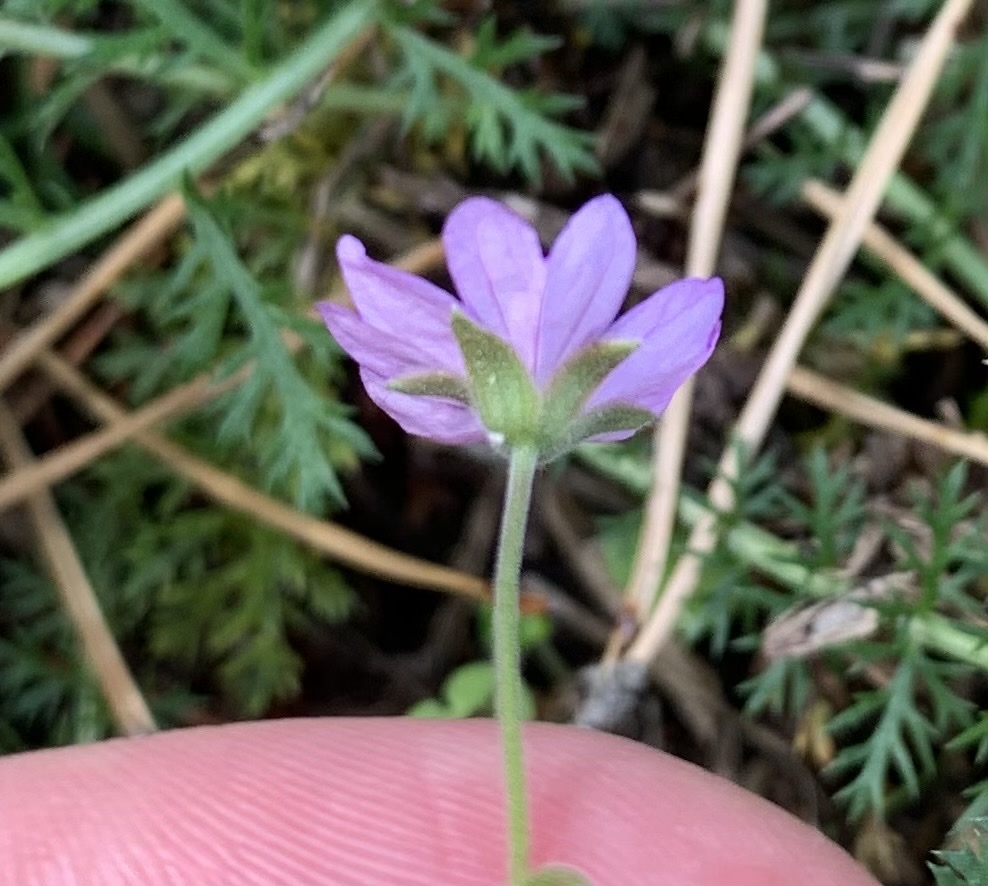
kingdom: Plantae
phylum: Tracheophyta
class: Magnoliopsida
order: Geraniales
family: Geraniaceae
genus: Geranium
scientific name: Geranium sanguineum
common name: Bloody crane's-bill
